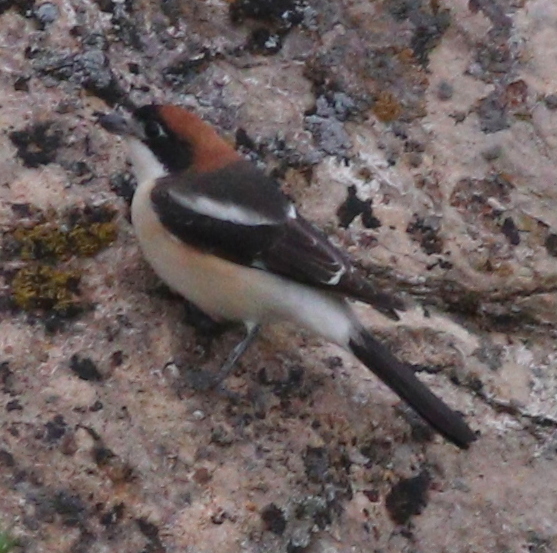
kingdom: Animalia
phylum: Chordata
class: Aves
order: Passeriformes
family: Laniidae
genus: Lanius
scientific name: Lanius senator
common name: Woodchat shrike
